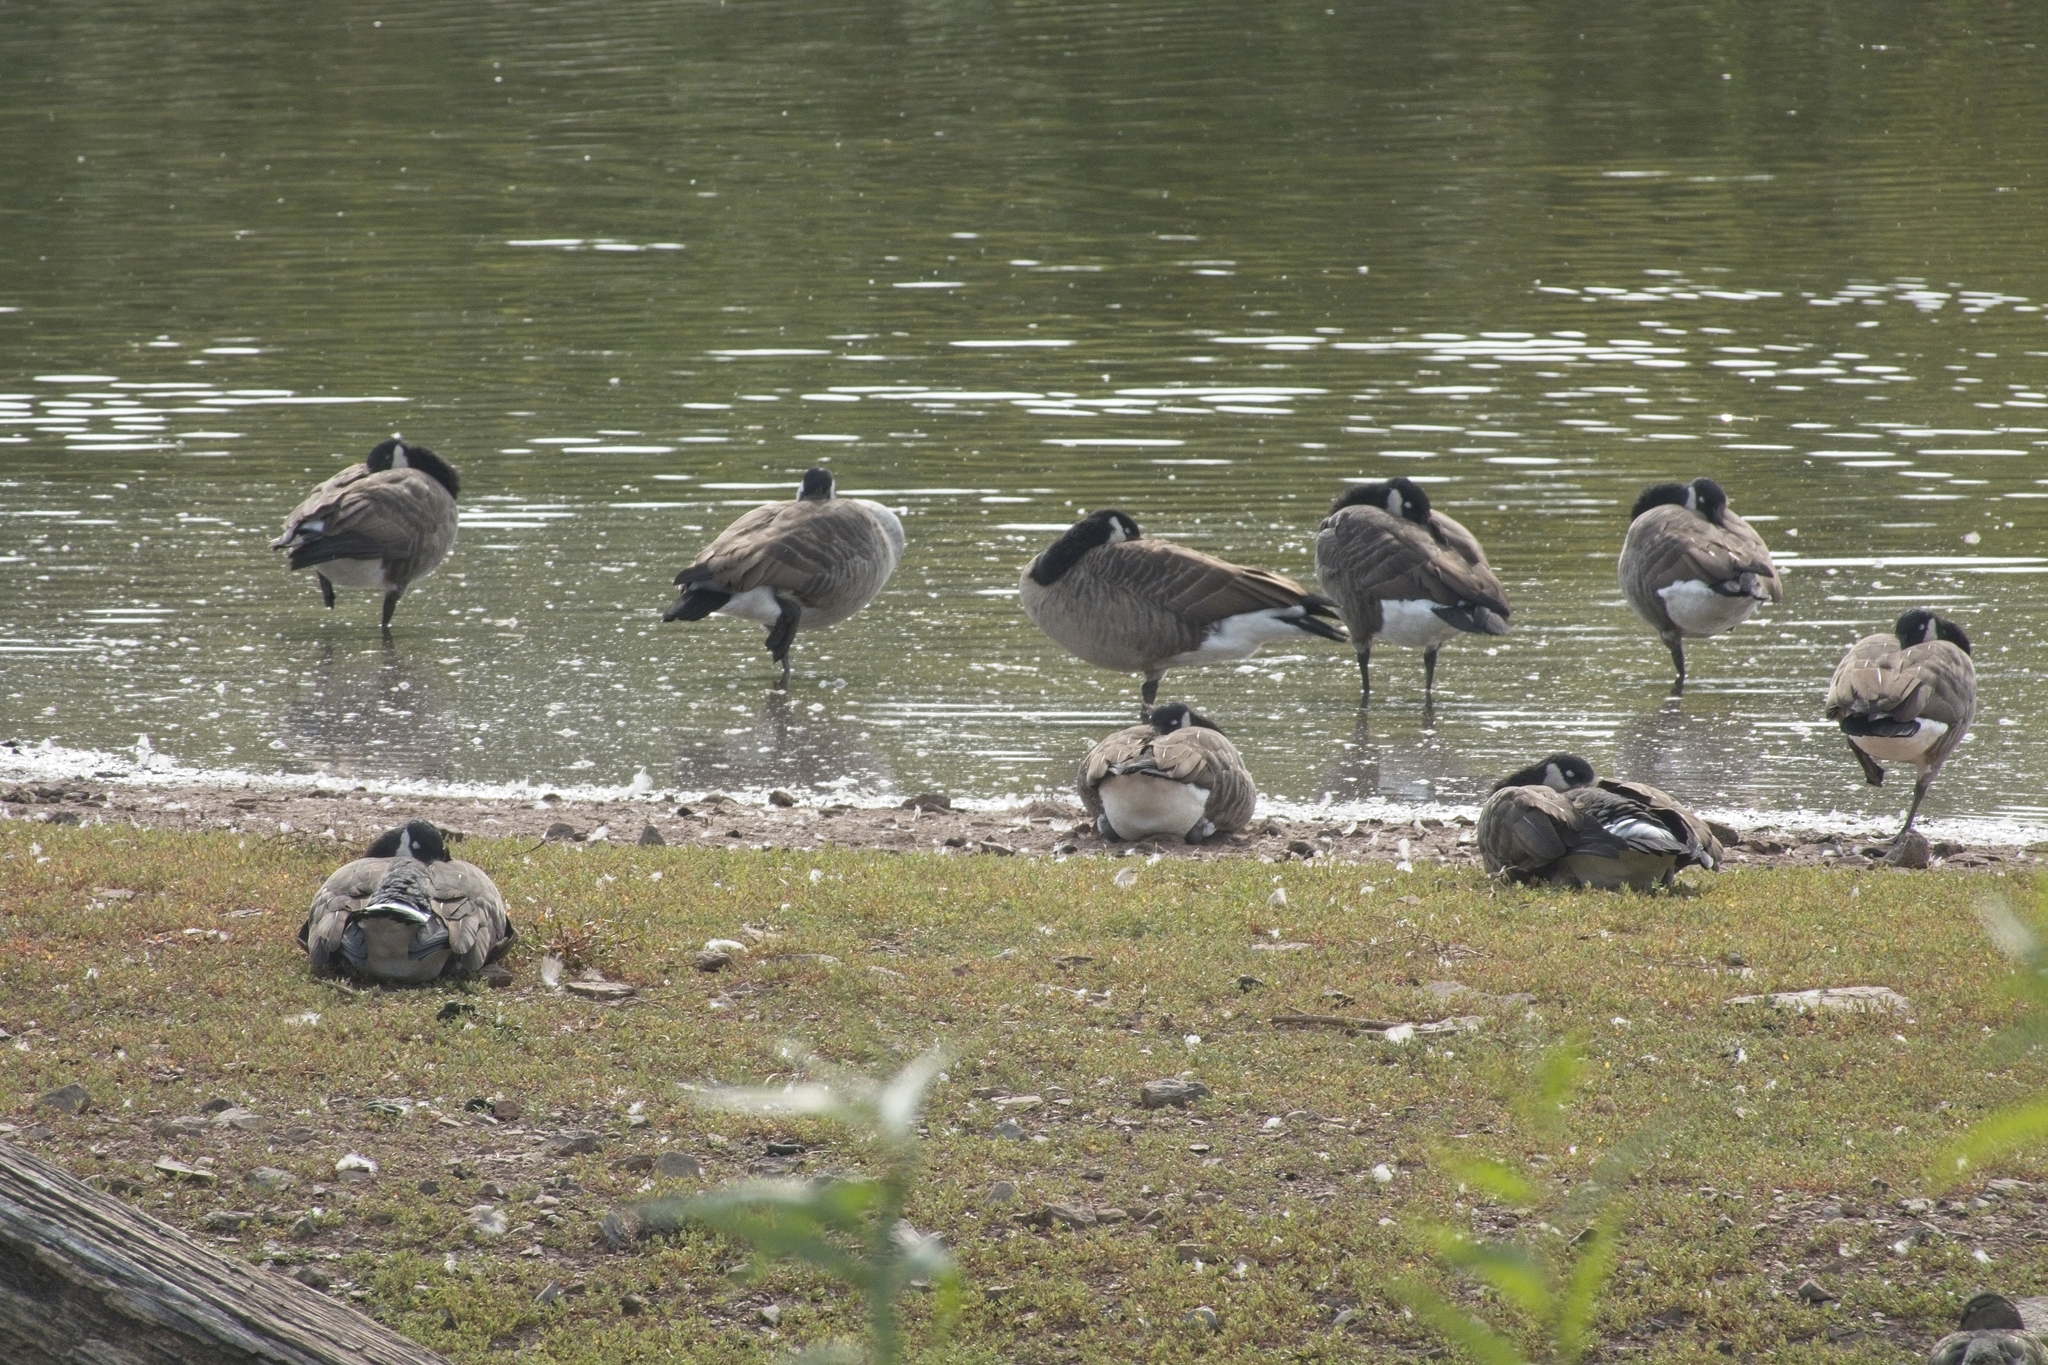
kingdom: Animalia
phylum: Chordata
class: Aves
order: Anseriformes
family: Anatidae
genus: Branta
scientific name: Branta canadensis
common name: Canada goose
